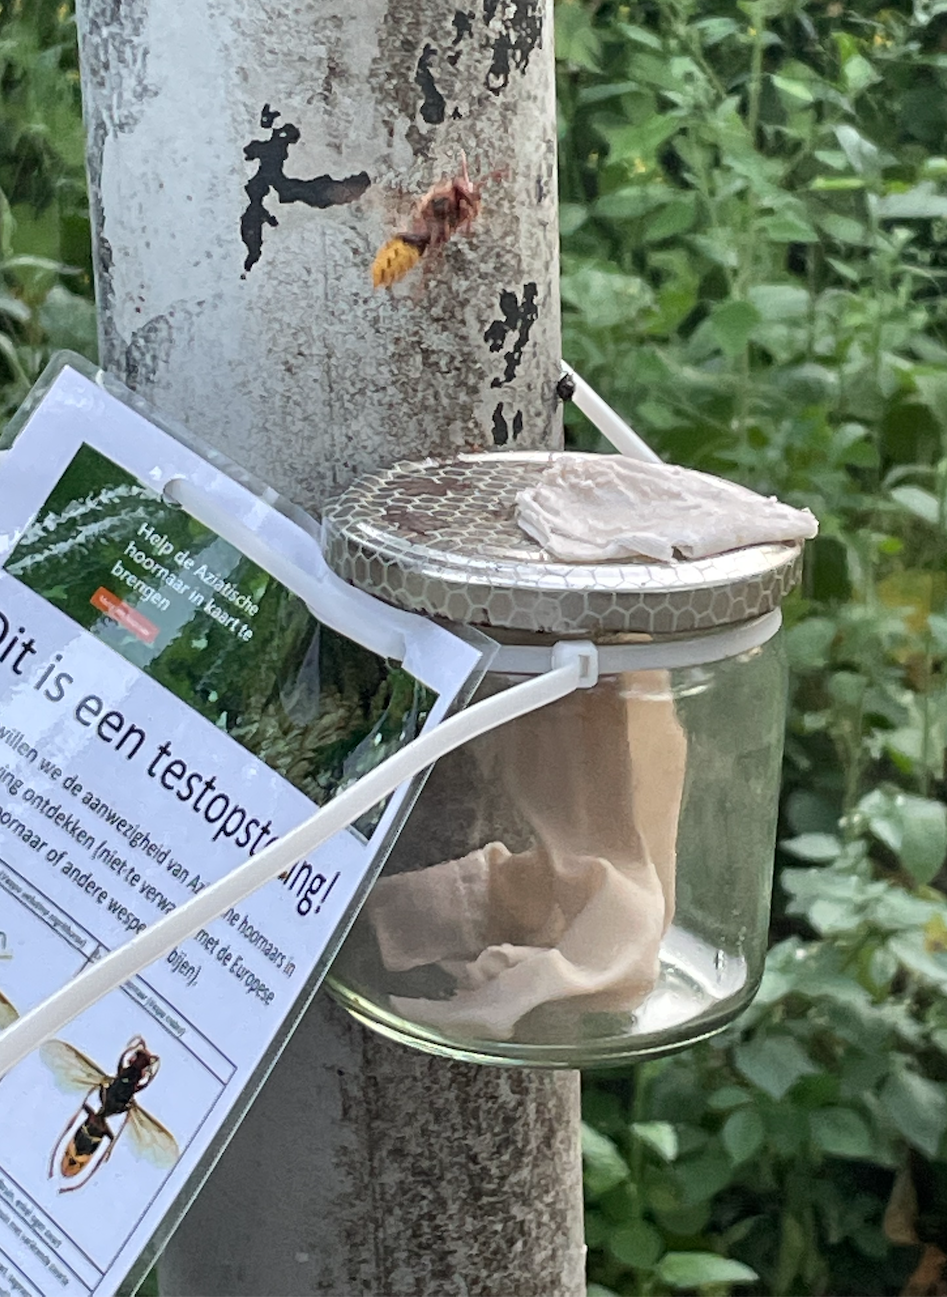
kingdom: Animalia
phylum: Arthropoda
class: Insecta
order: Hymenoptera
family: Vespidae
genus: Vespa
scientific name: Vespa crabro
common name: Hornet
